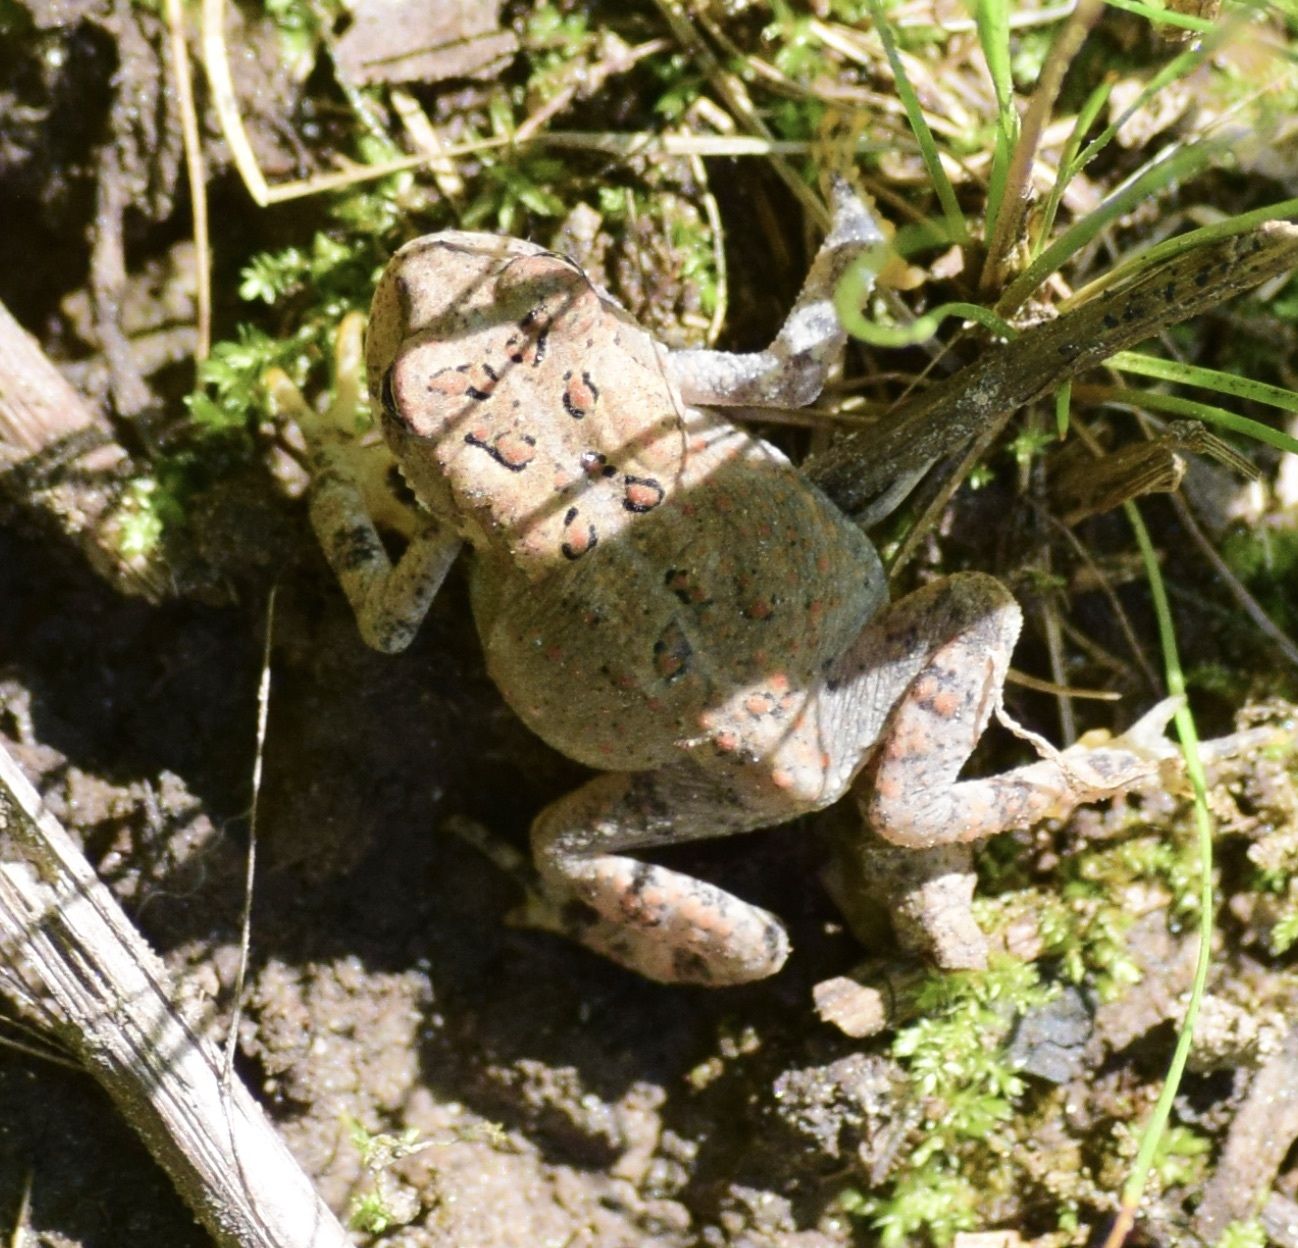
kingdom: Animalia
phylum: Chordata
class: Amphibia
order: Anura
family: Bufonidae
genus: Anaxyrus
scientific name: Anaxyrus americanus
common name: American toad
